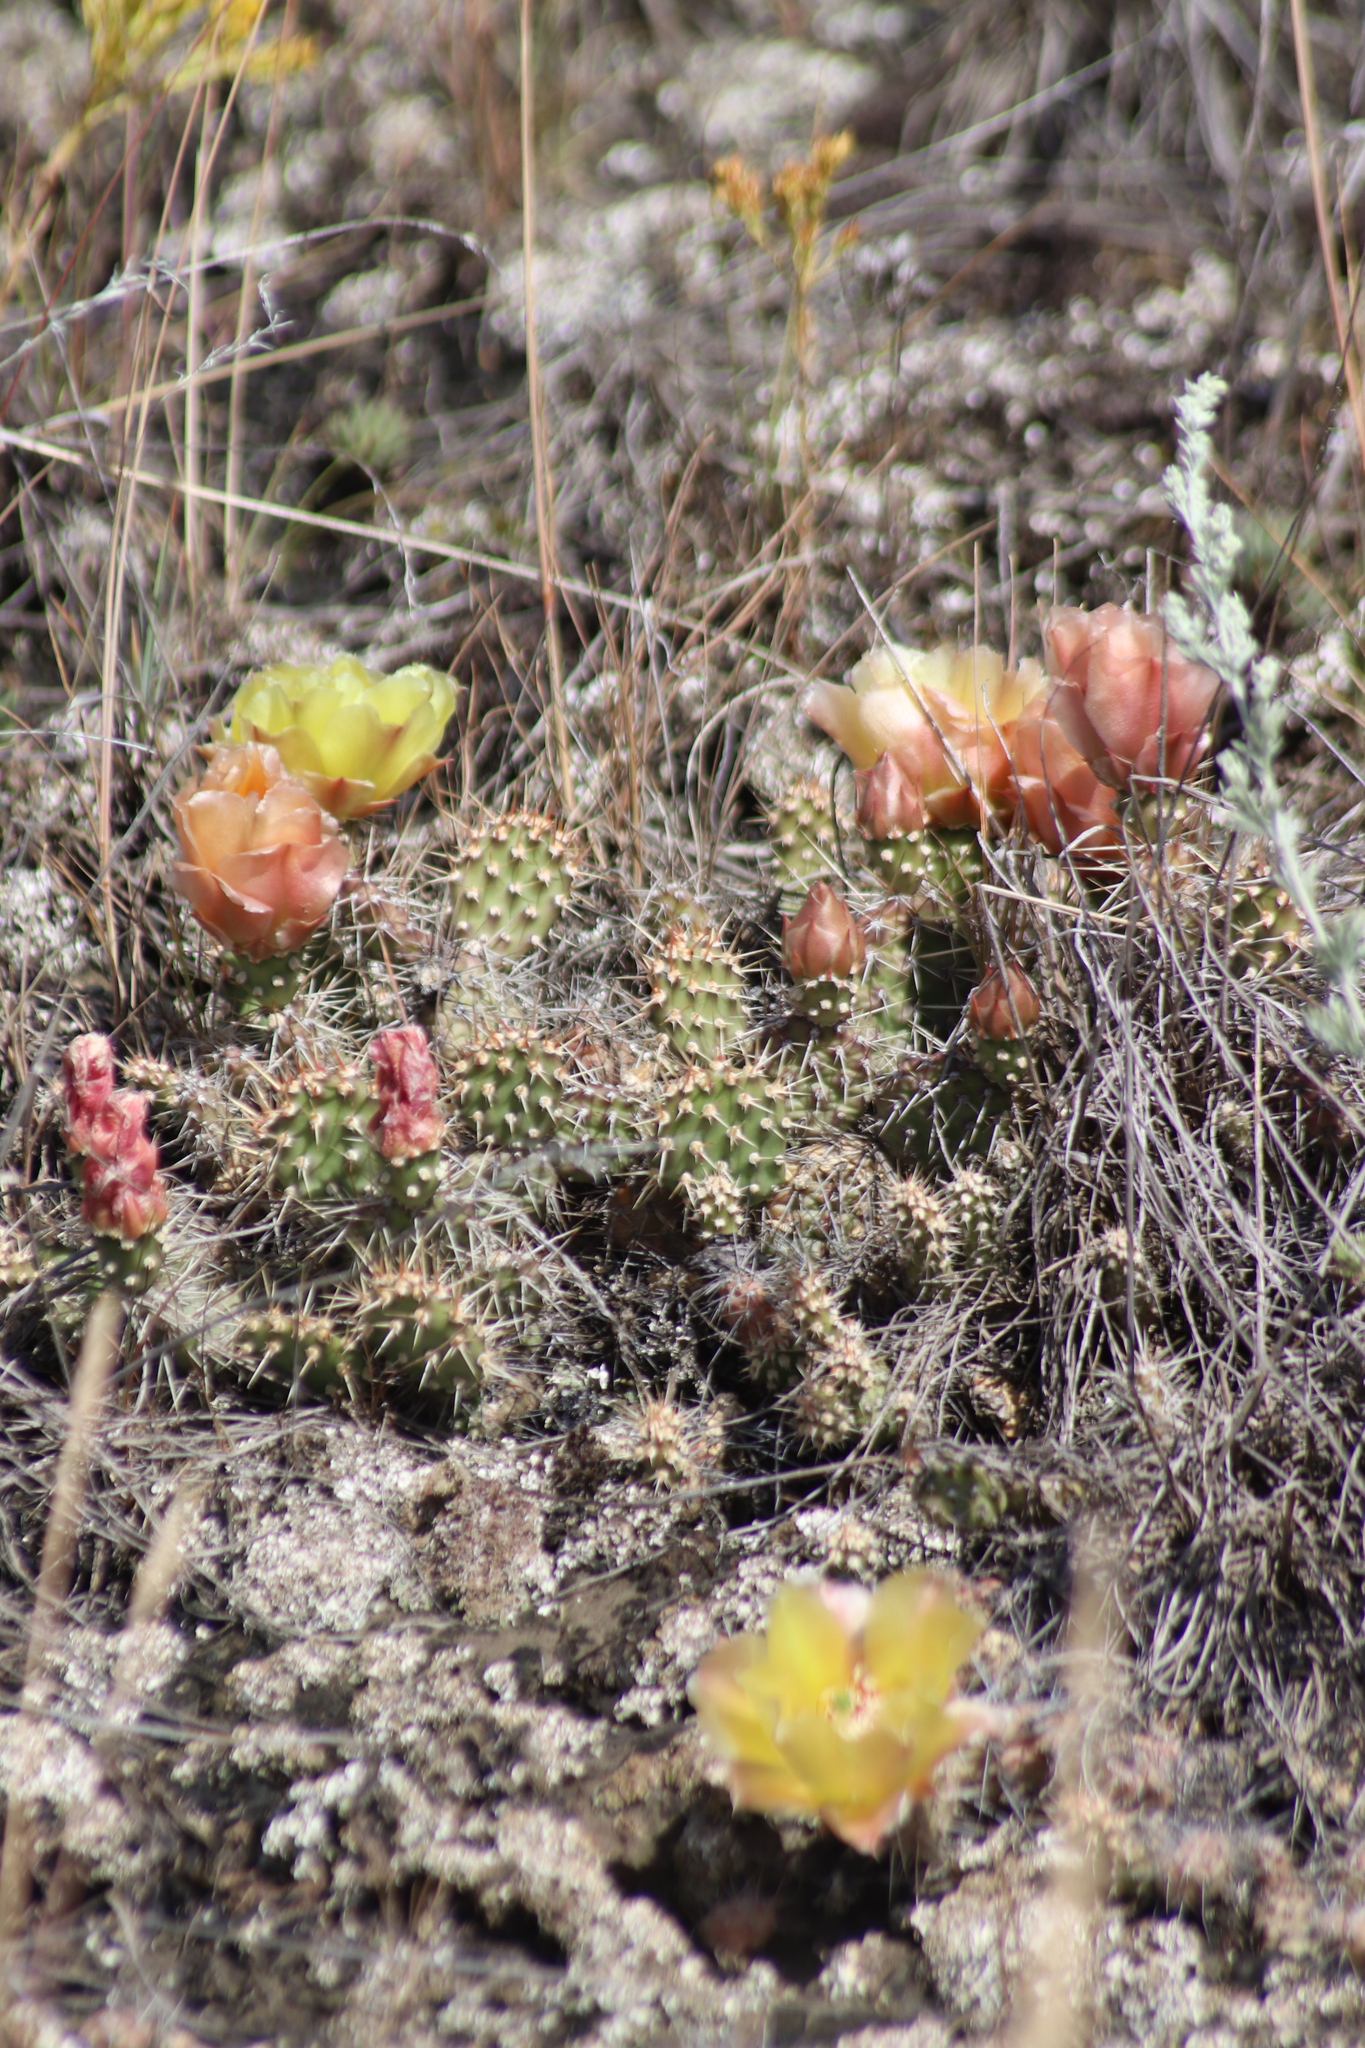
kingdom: Plantae
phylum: Tracheophyta
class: Magnoliopsida
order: Caryophyllales
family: Cactaceae
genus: Opuntia
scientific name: Opuntia fragilis
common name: Brittle cactus
